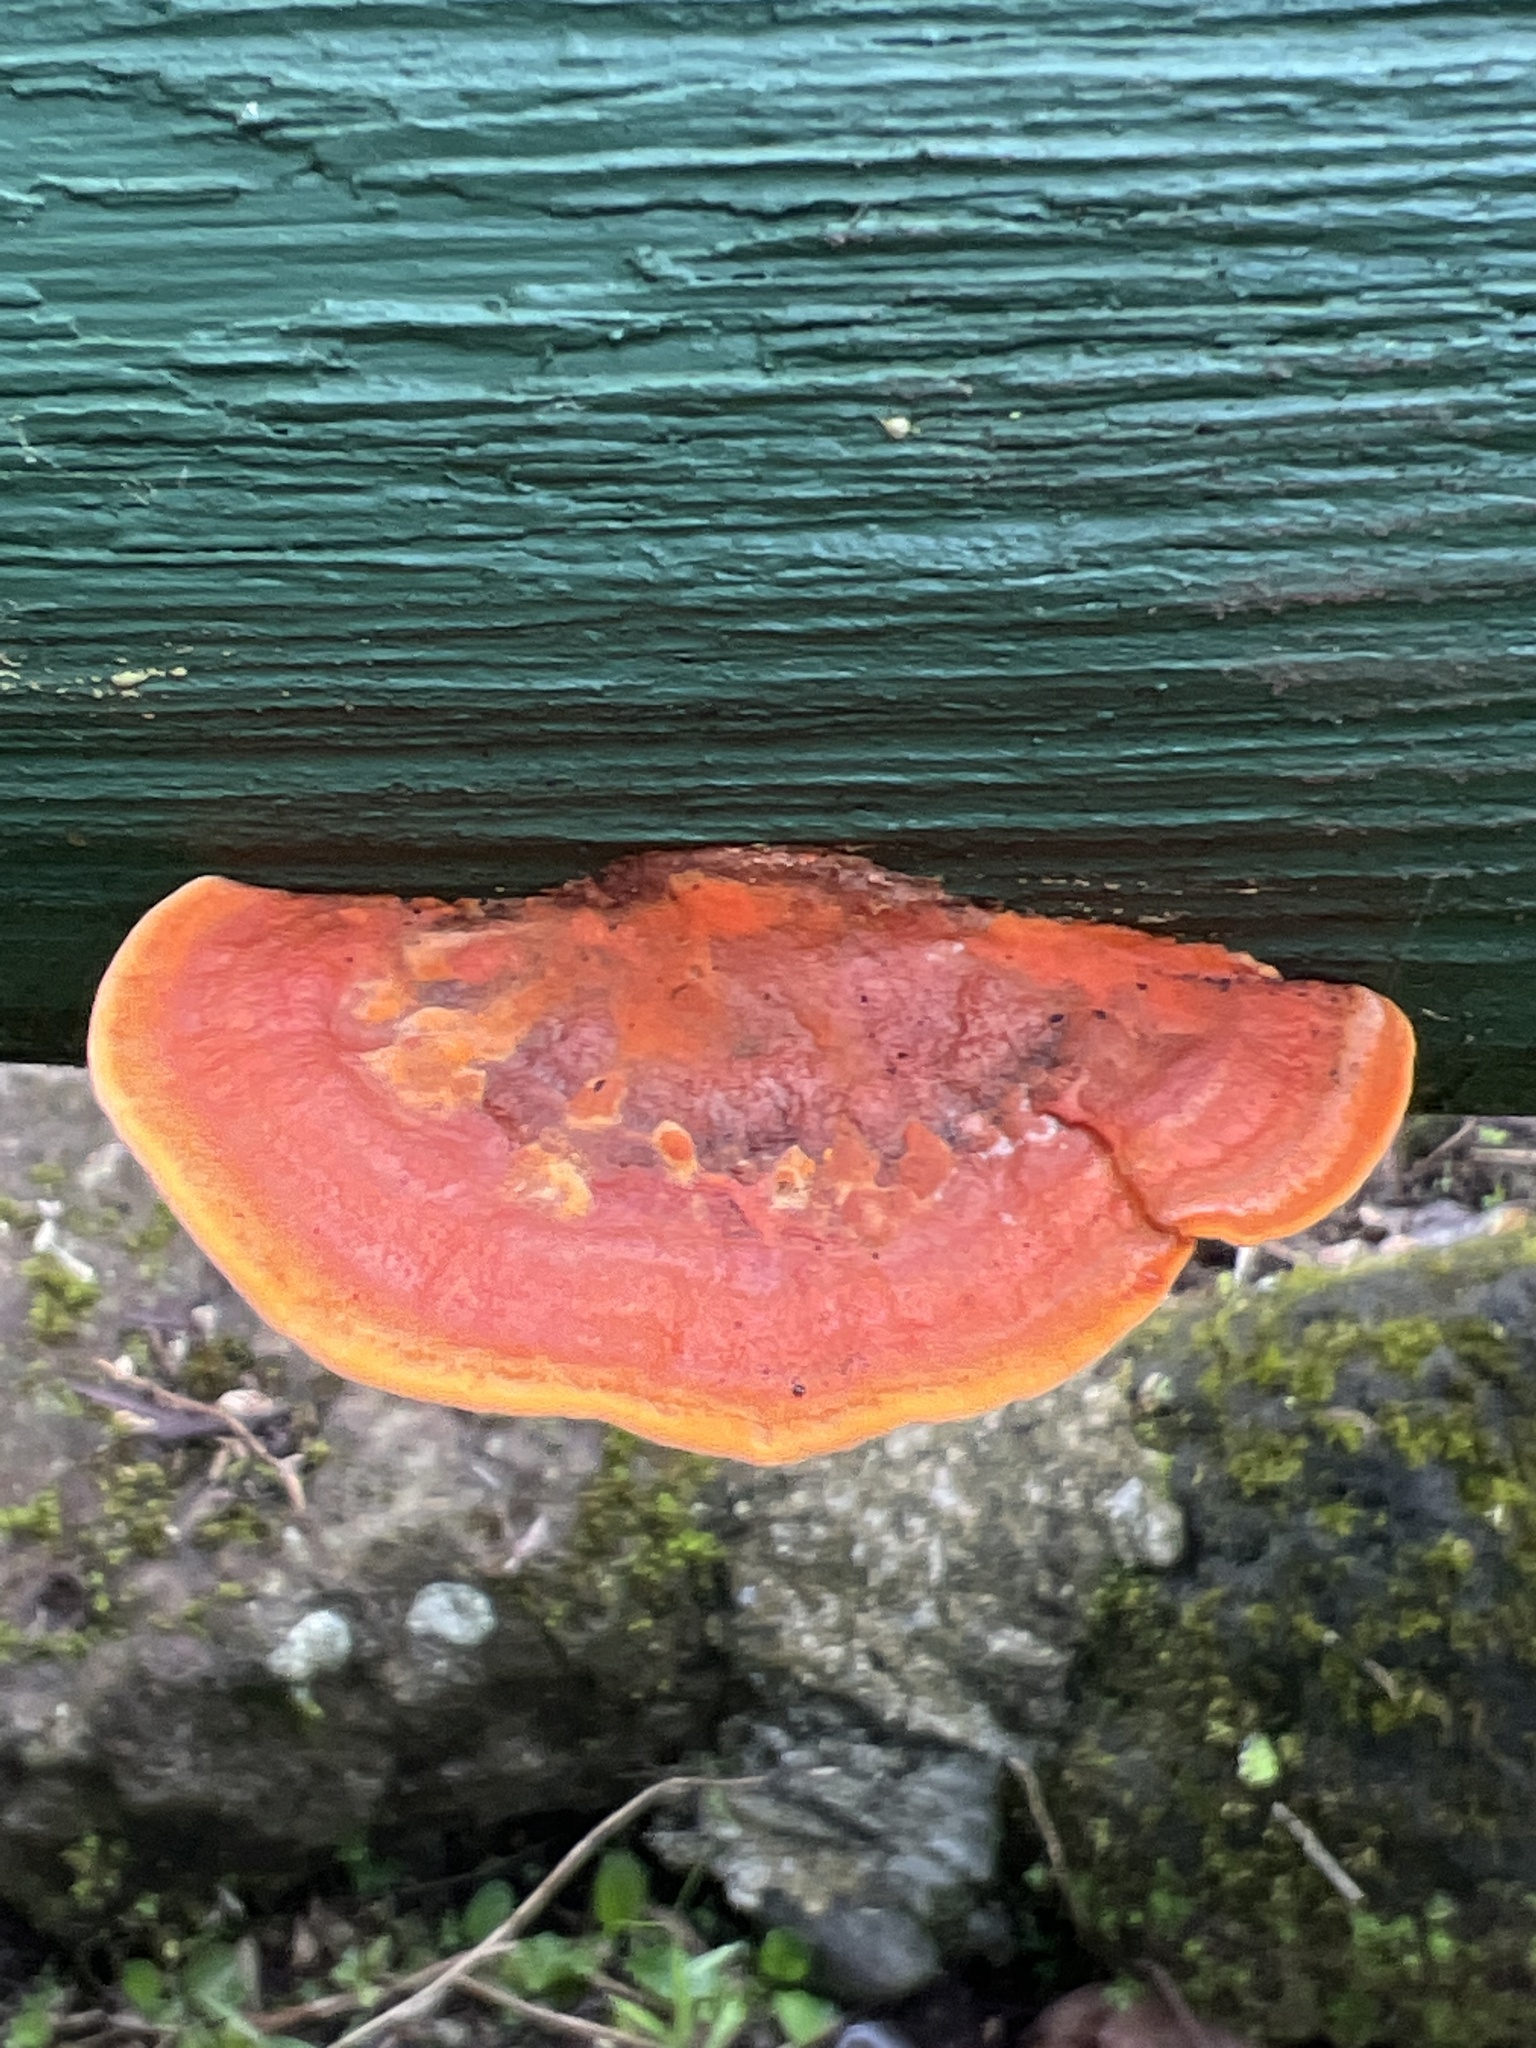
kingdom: Fungi
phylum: Basidiomycota
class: Agaricomycetes
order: Polyporales
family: Polyporaceae
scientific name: Polyporaceae
